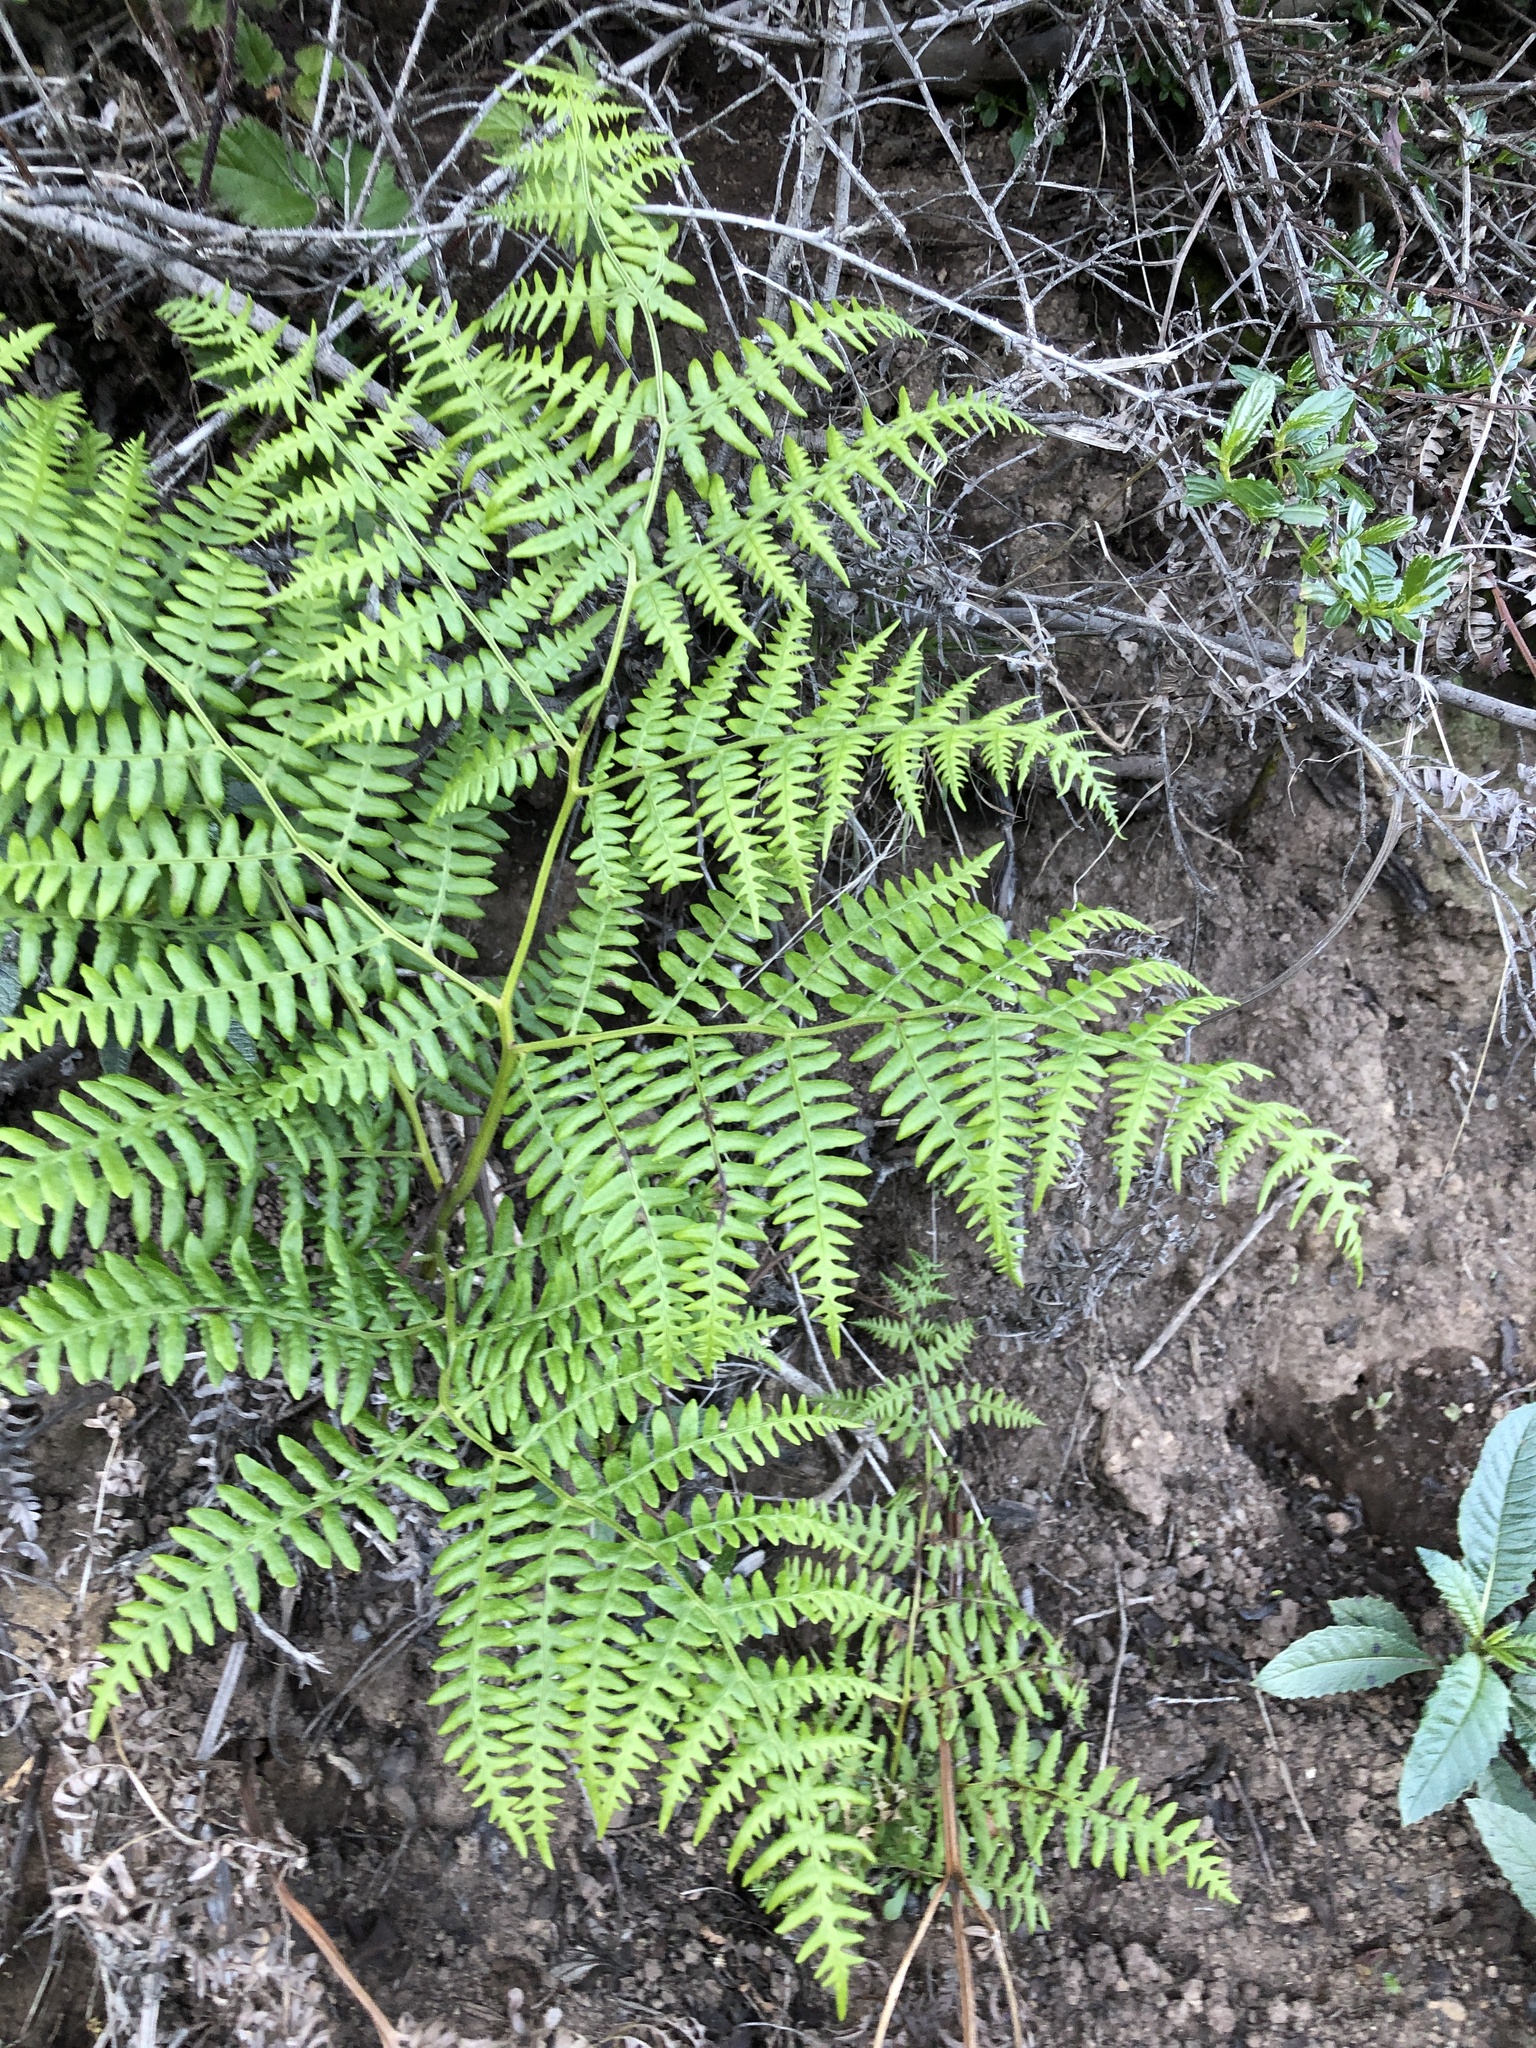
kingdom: Plantae
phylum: Tracheophyta
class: Polypodiopsida
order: Polypodiales
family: Dennstaedtiaceae
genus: Pteridium
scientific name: Pteridium aquilinum
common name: Bracken
